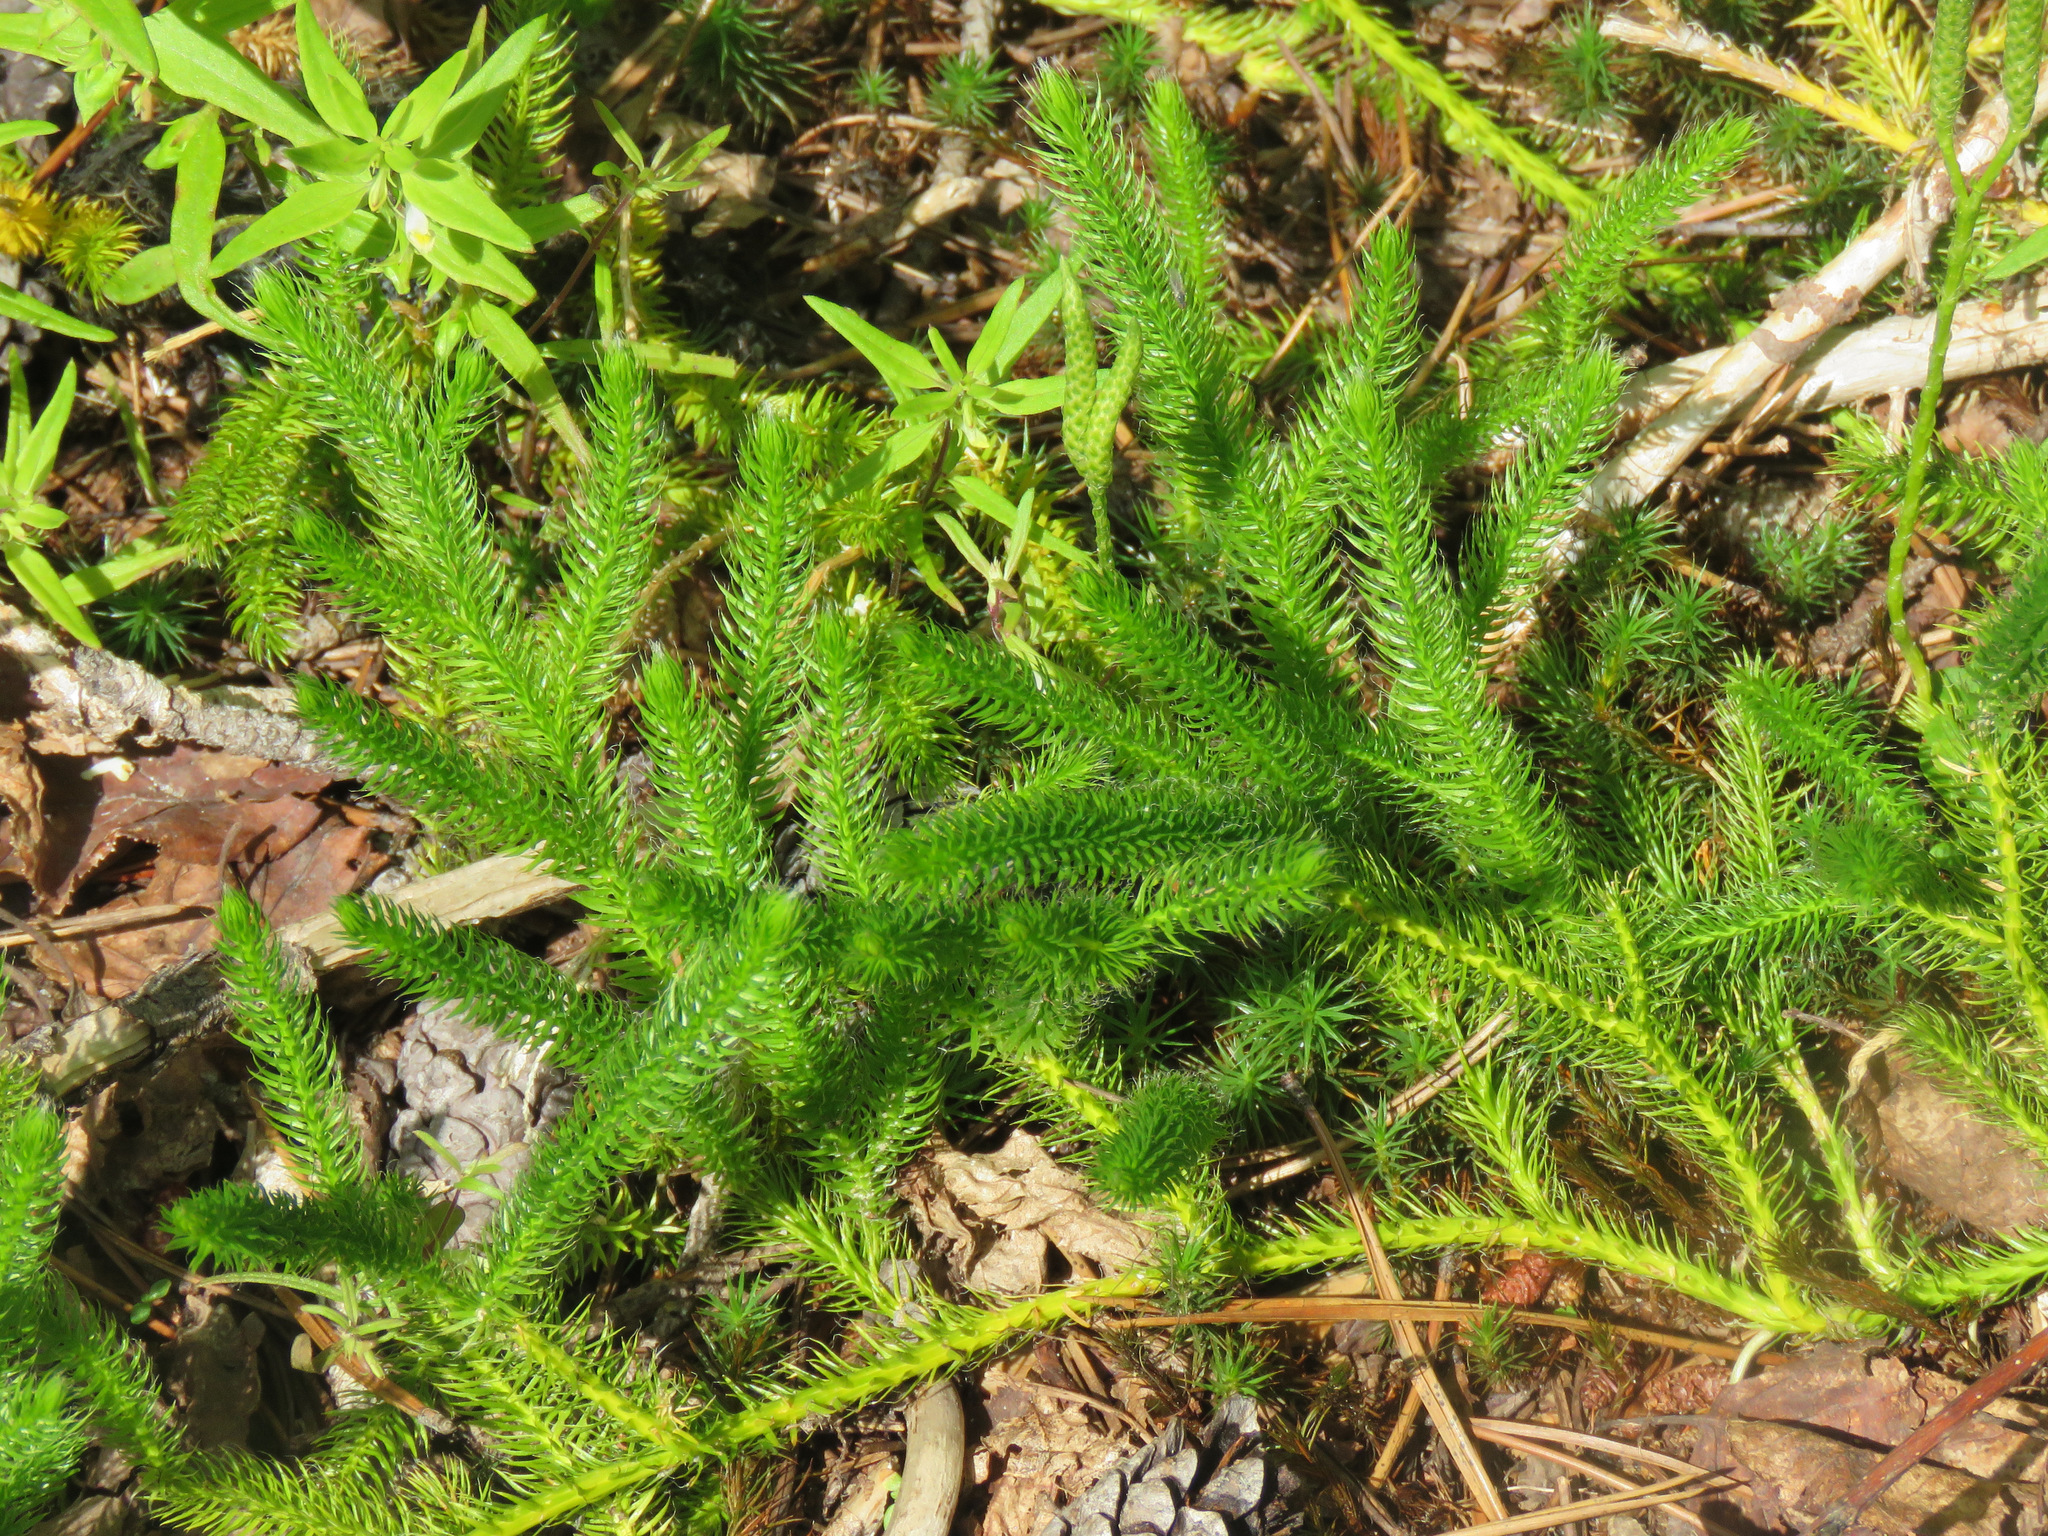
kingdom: Plantae
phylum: Tracheophyta
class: Lycopodiopsida
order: Lycopodiales
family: Lycopodiaceae
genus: Lycopodium
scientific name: Lycopodium clavatum
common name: Stag's-horn clubmoss
